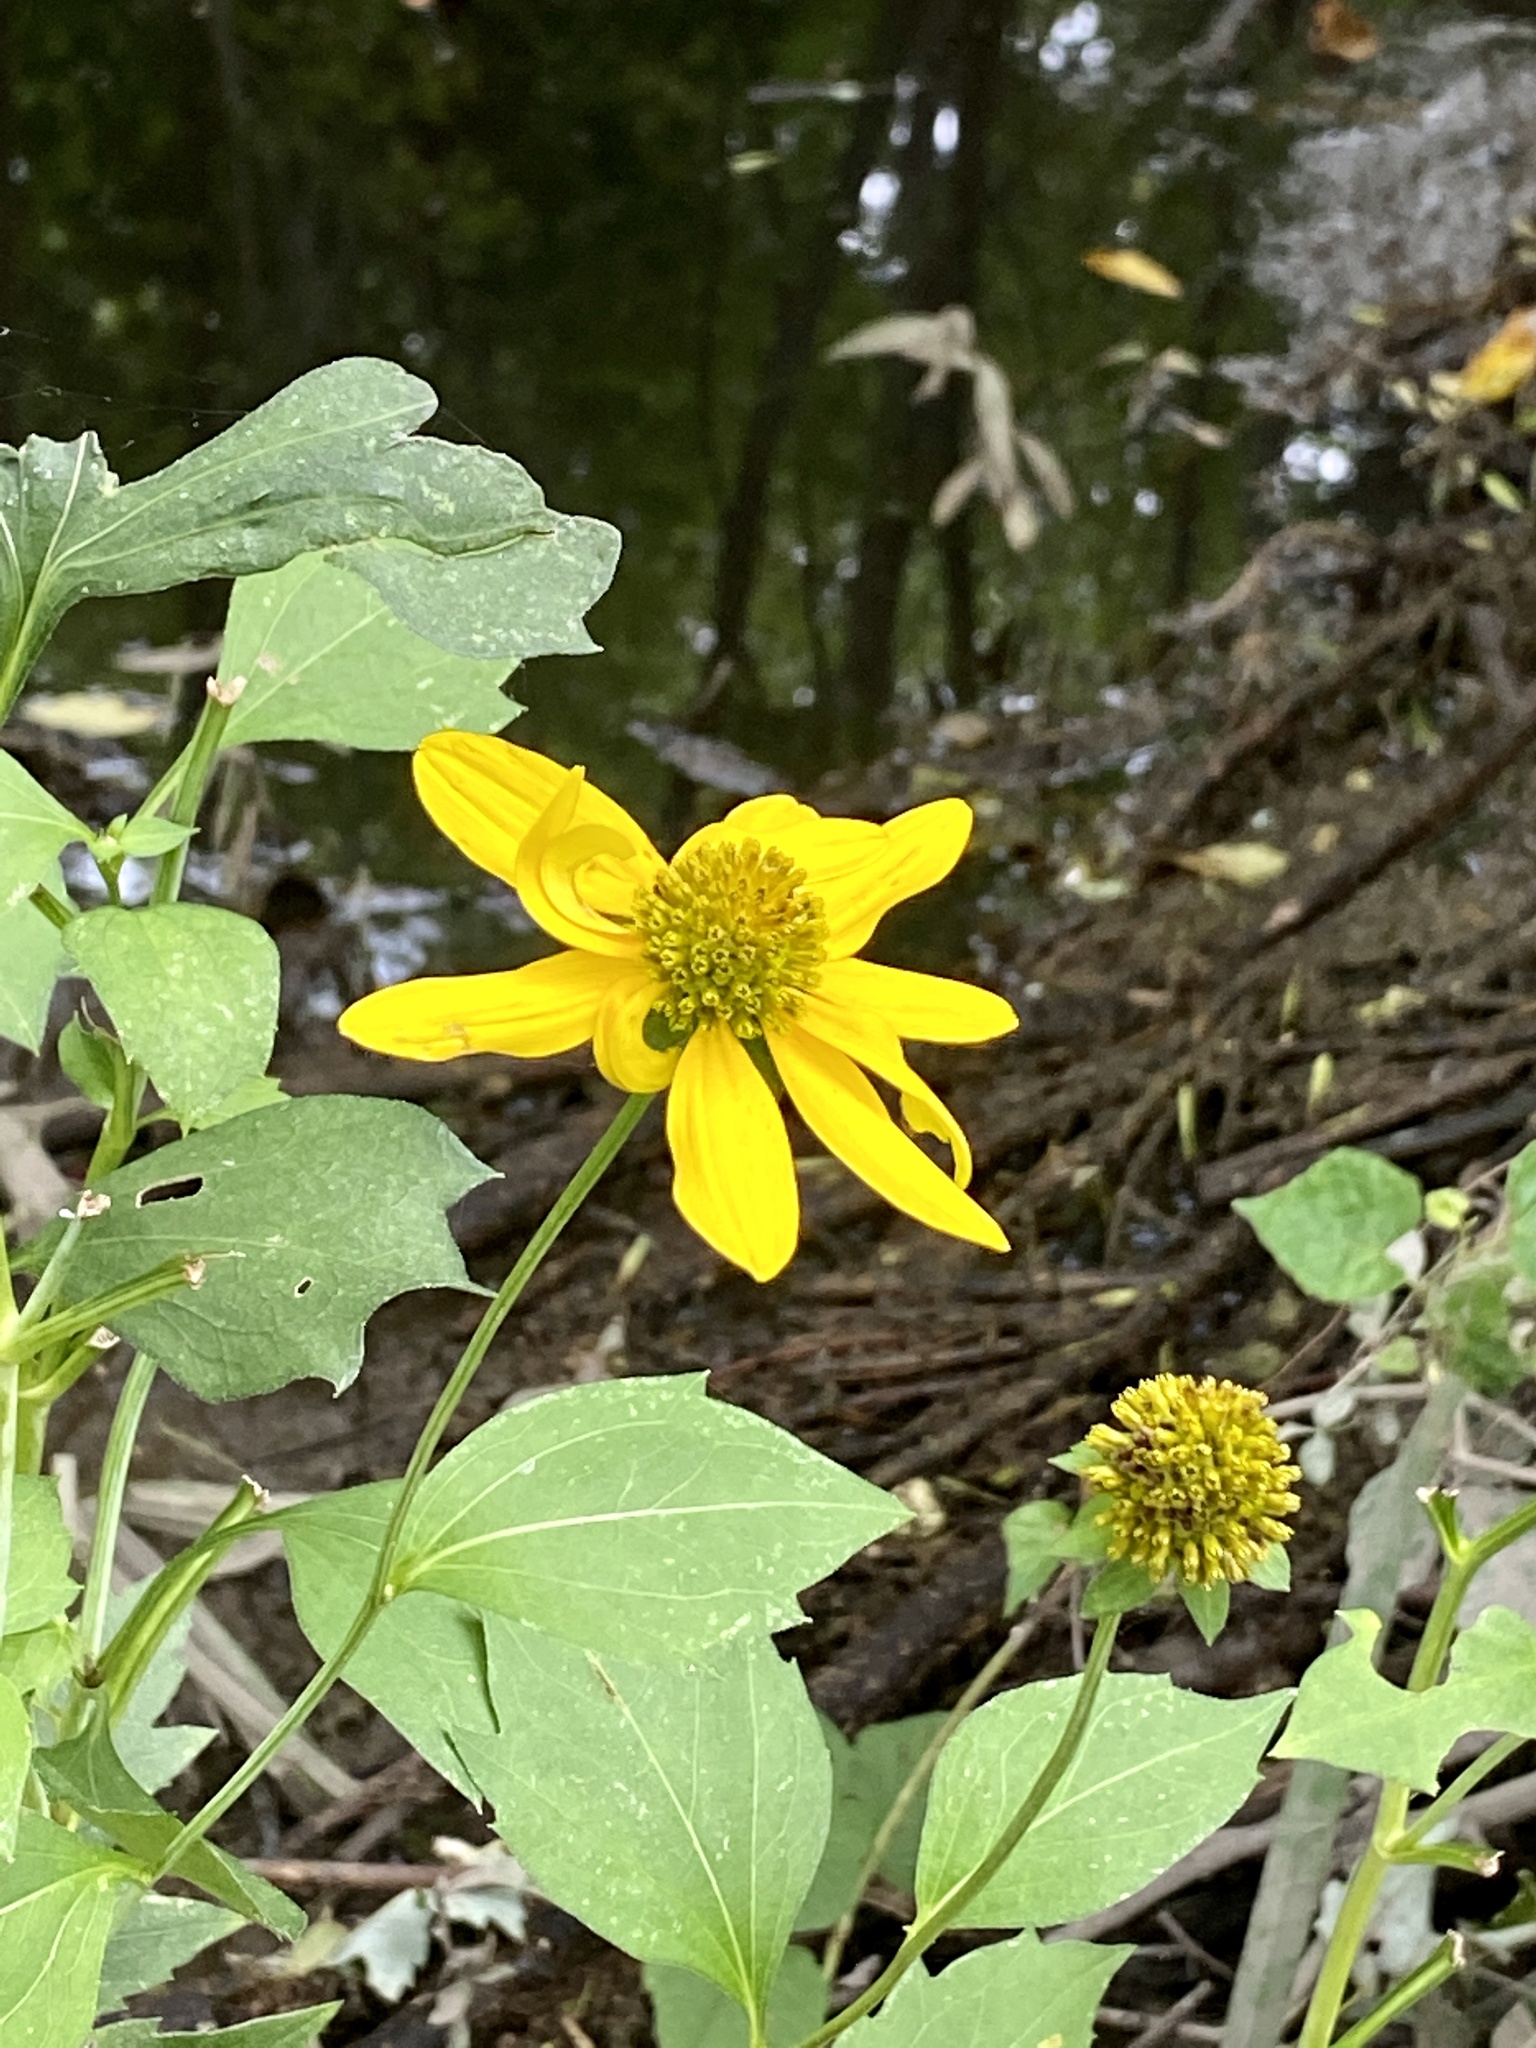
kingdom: Plantae
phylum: Tracheophyta
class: Magnoliopsida
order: Asterales
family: Asteraceae
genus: Rudbeckia
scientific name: Rudbeckia laciniata
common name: Coneflower
